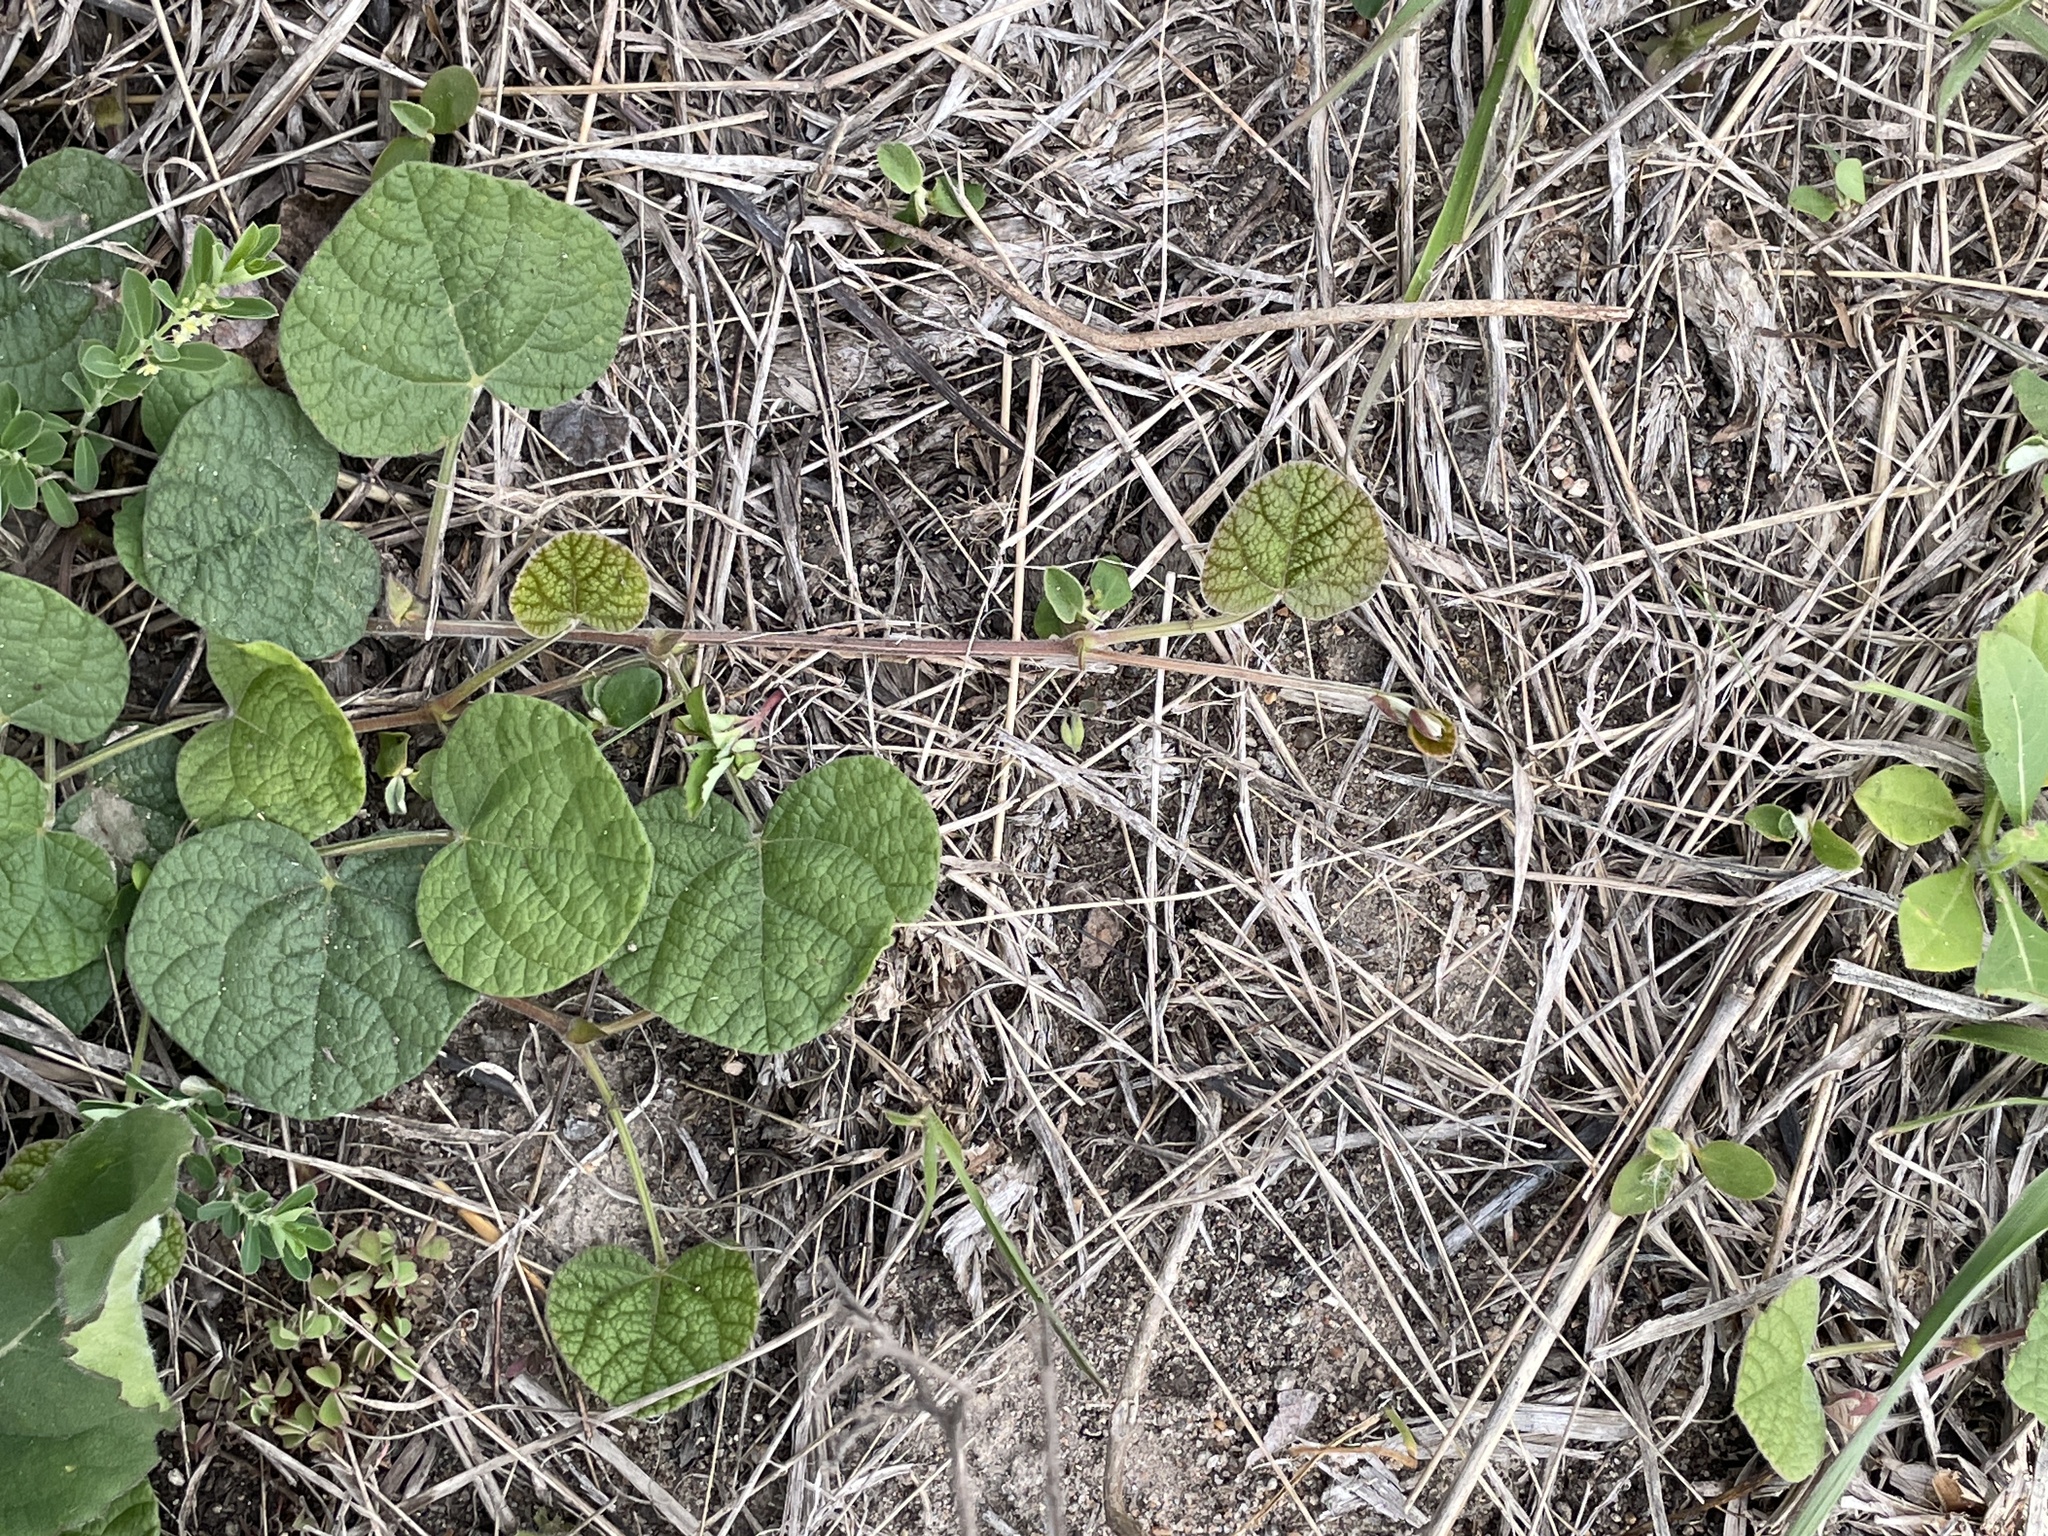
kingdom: Plantae
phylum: Tracheophyta
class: Magnoliopsida
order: Fabales
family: Fabaceae
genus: Rhynchosia
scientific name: Rhynchosia americana
